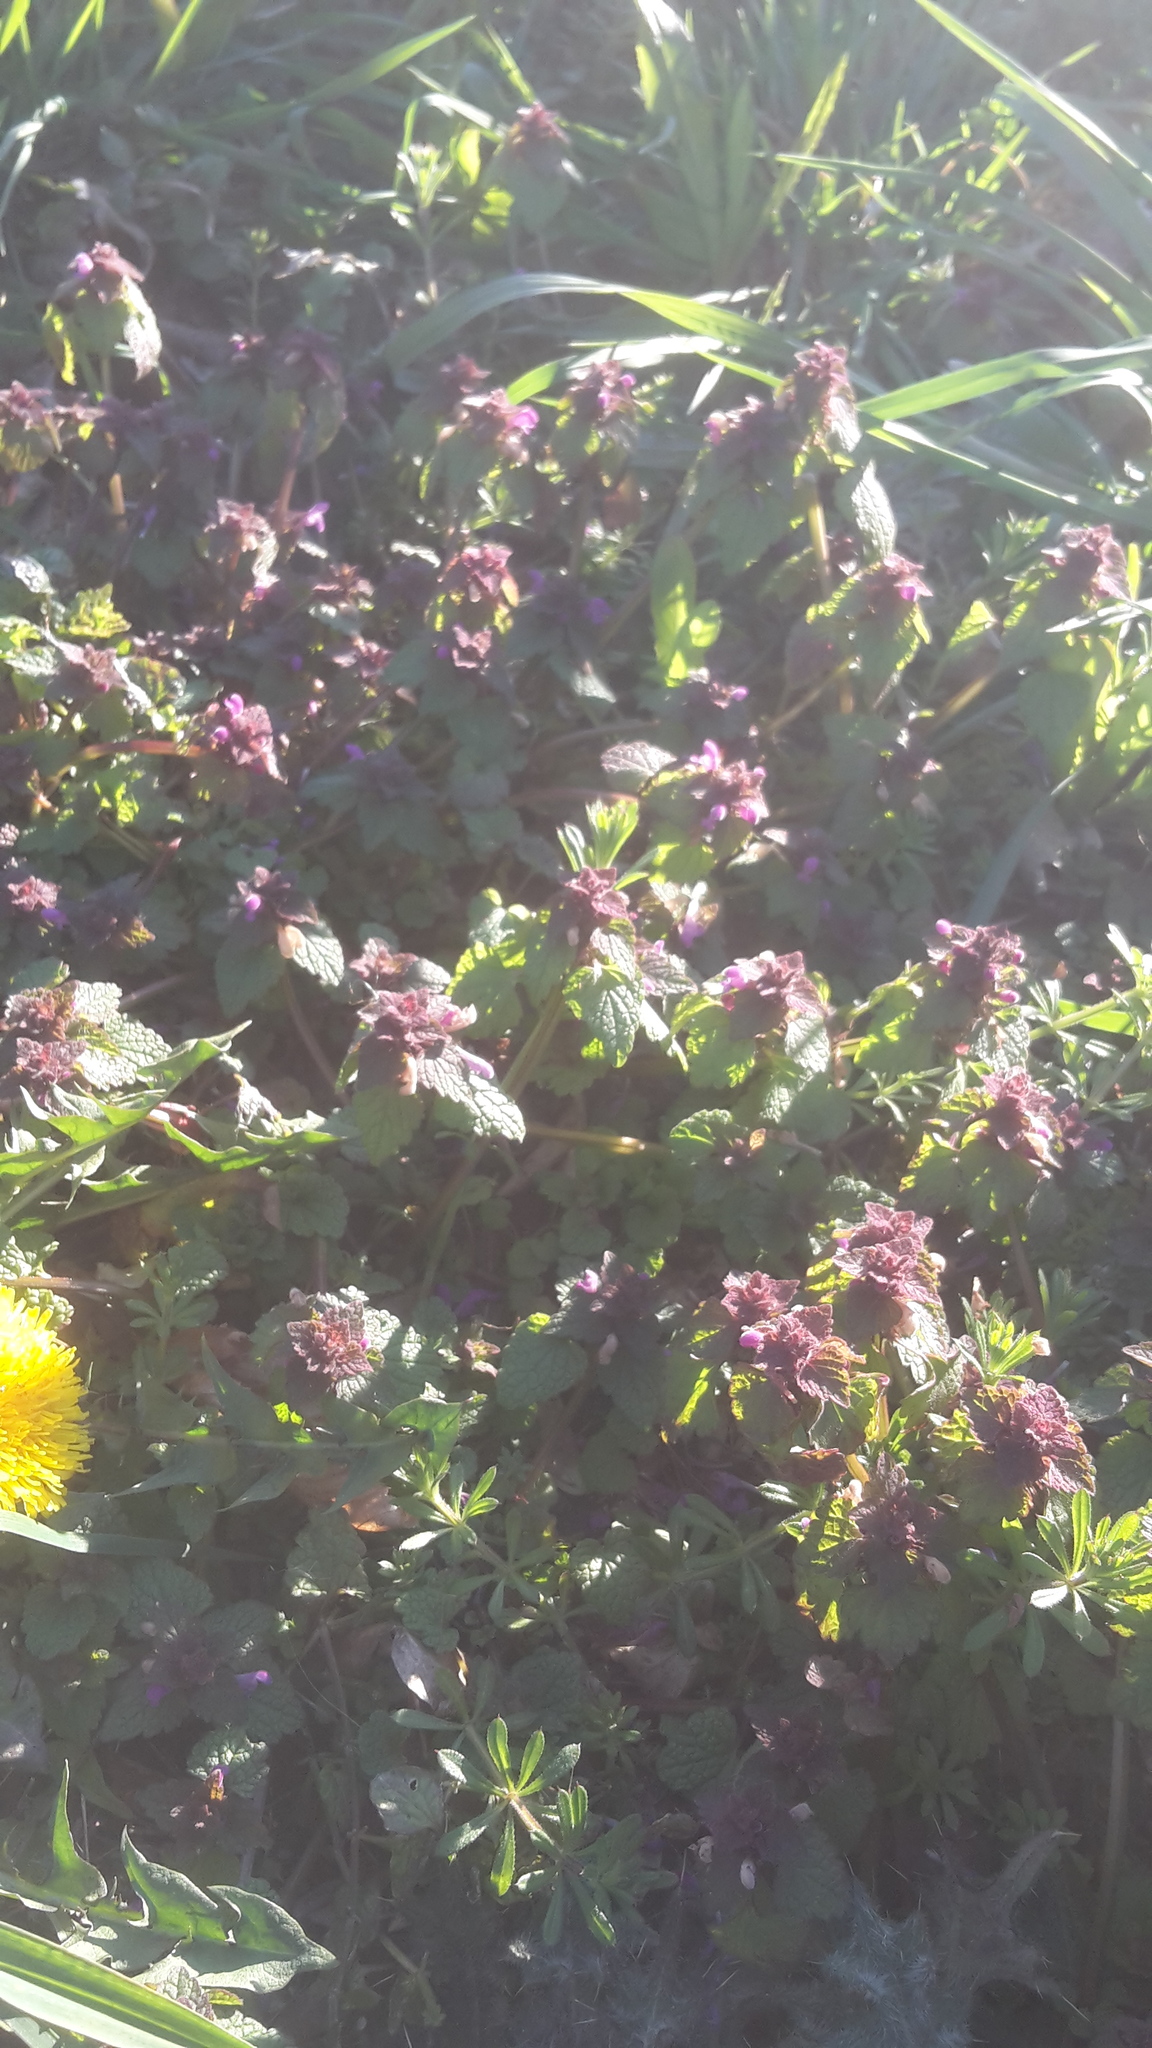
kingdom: Plantae
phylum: Tracheophyta
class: Magnoliopsida
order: Lamiales
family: Lamiaceae
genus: Lamium
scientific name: Lamium purpureum
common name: Red dead-nettle
